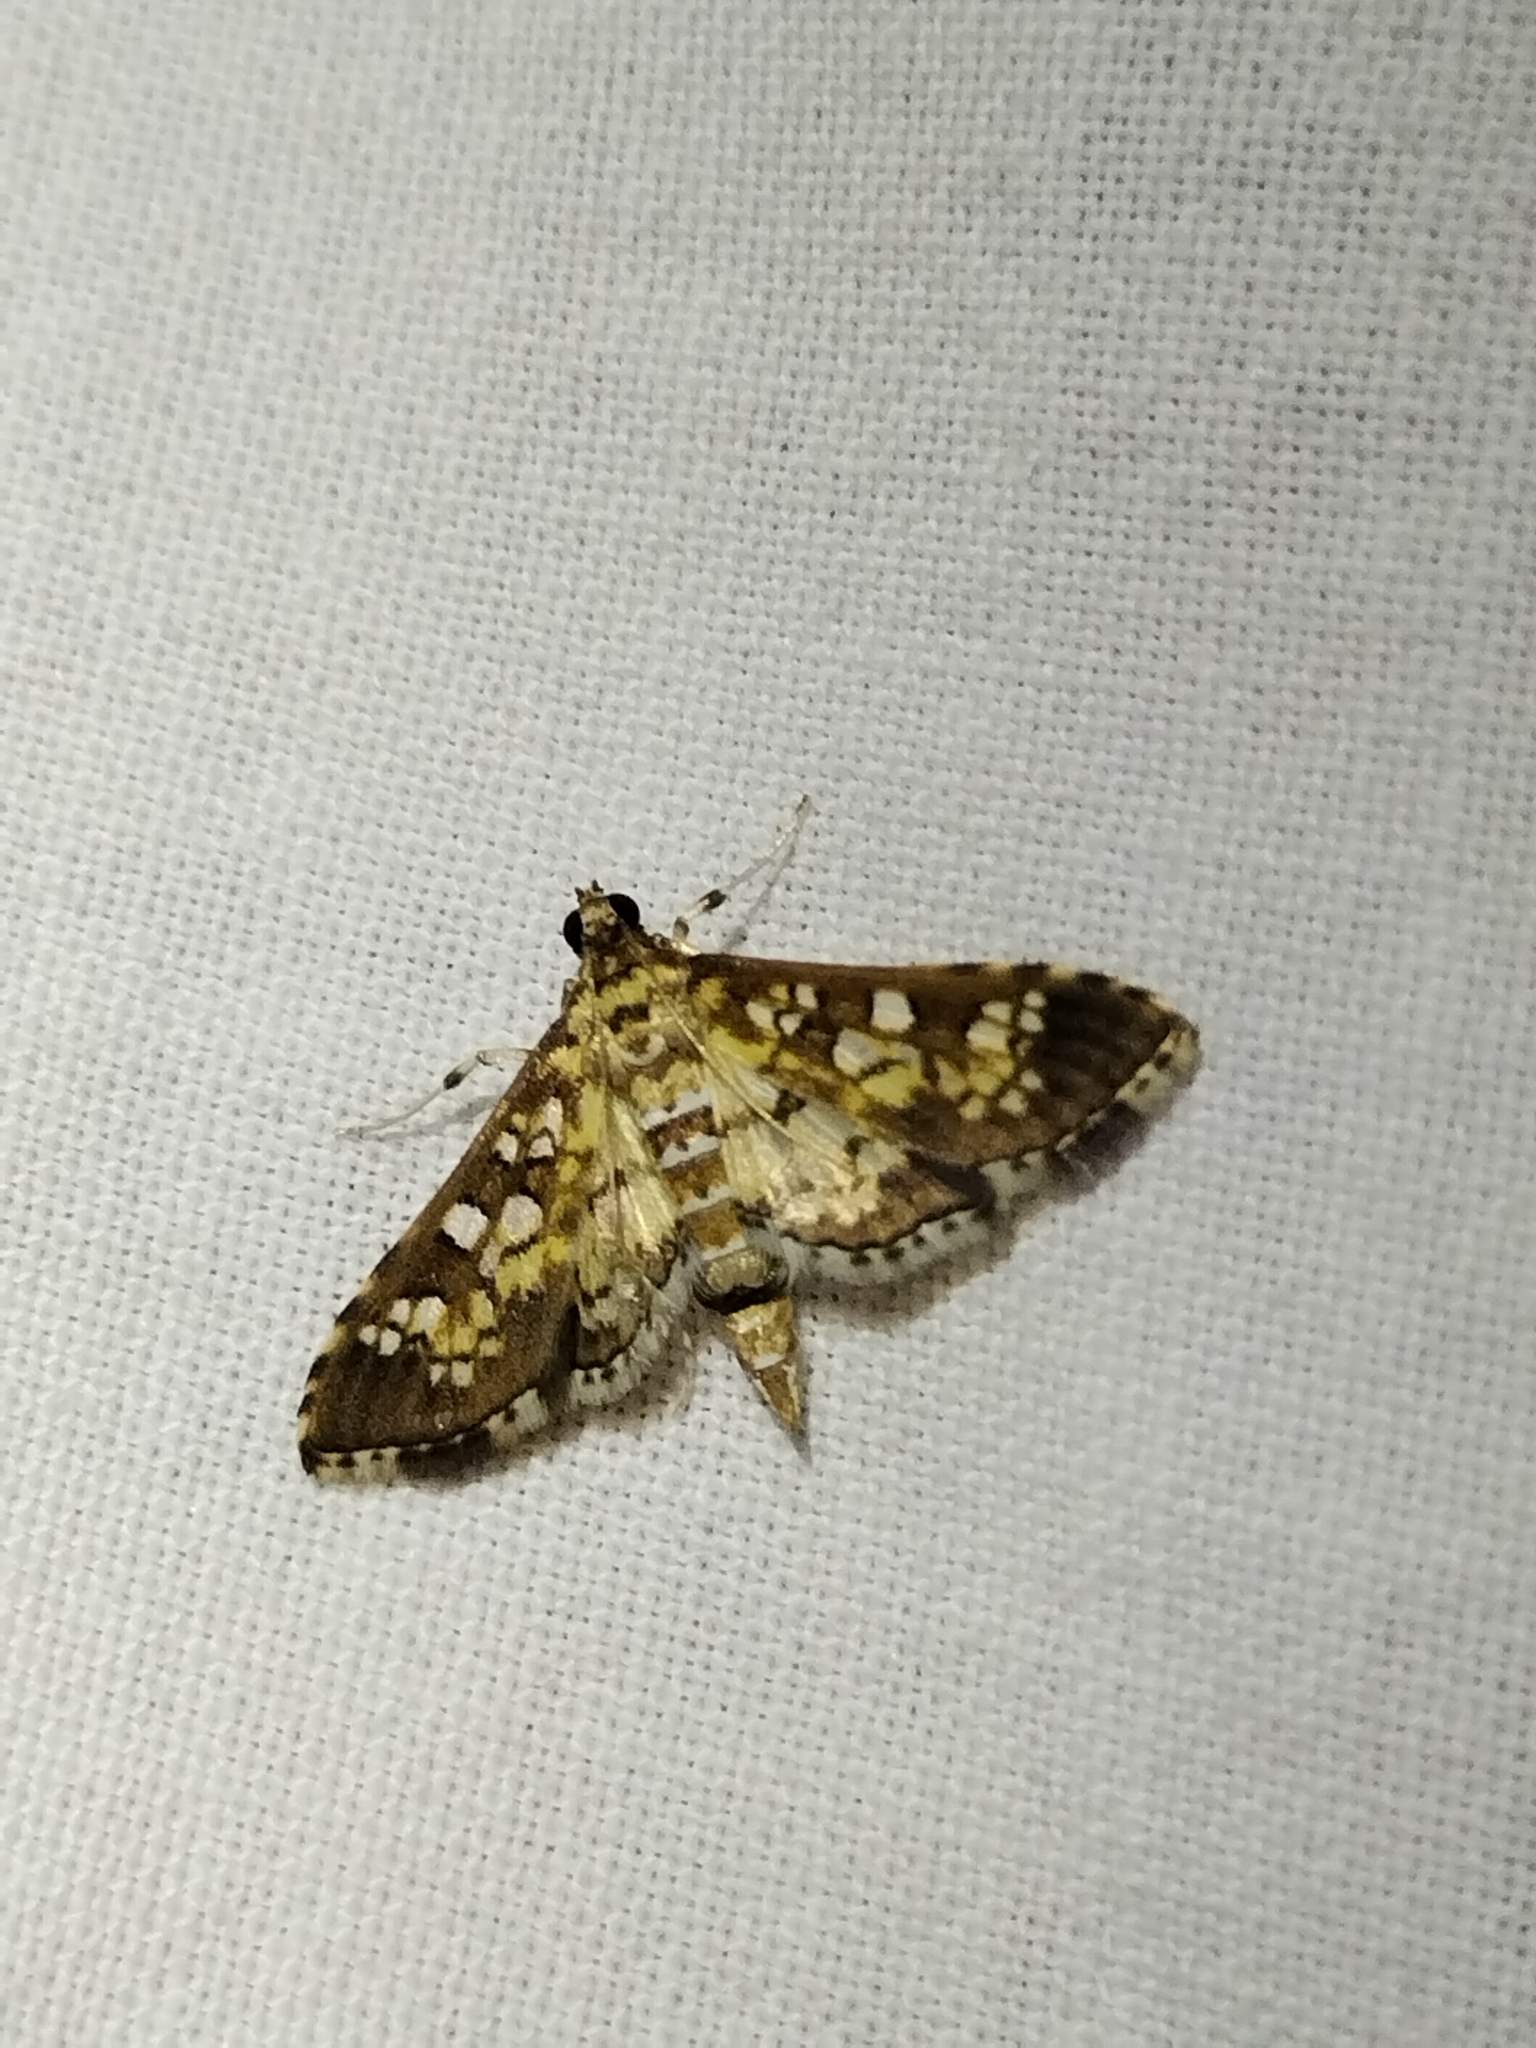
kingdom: Animalia
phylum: Arthropoda
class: Insecta
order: Lepidoptera
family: Crambidae
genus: Samea
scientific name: Samea ecclesialis
